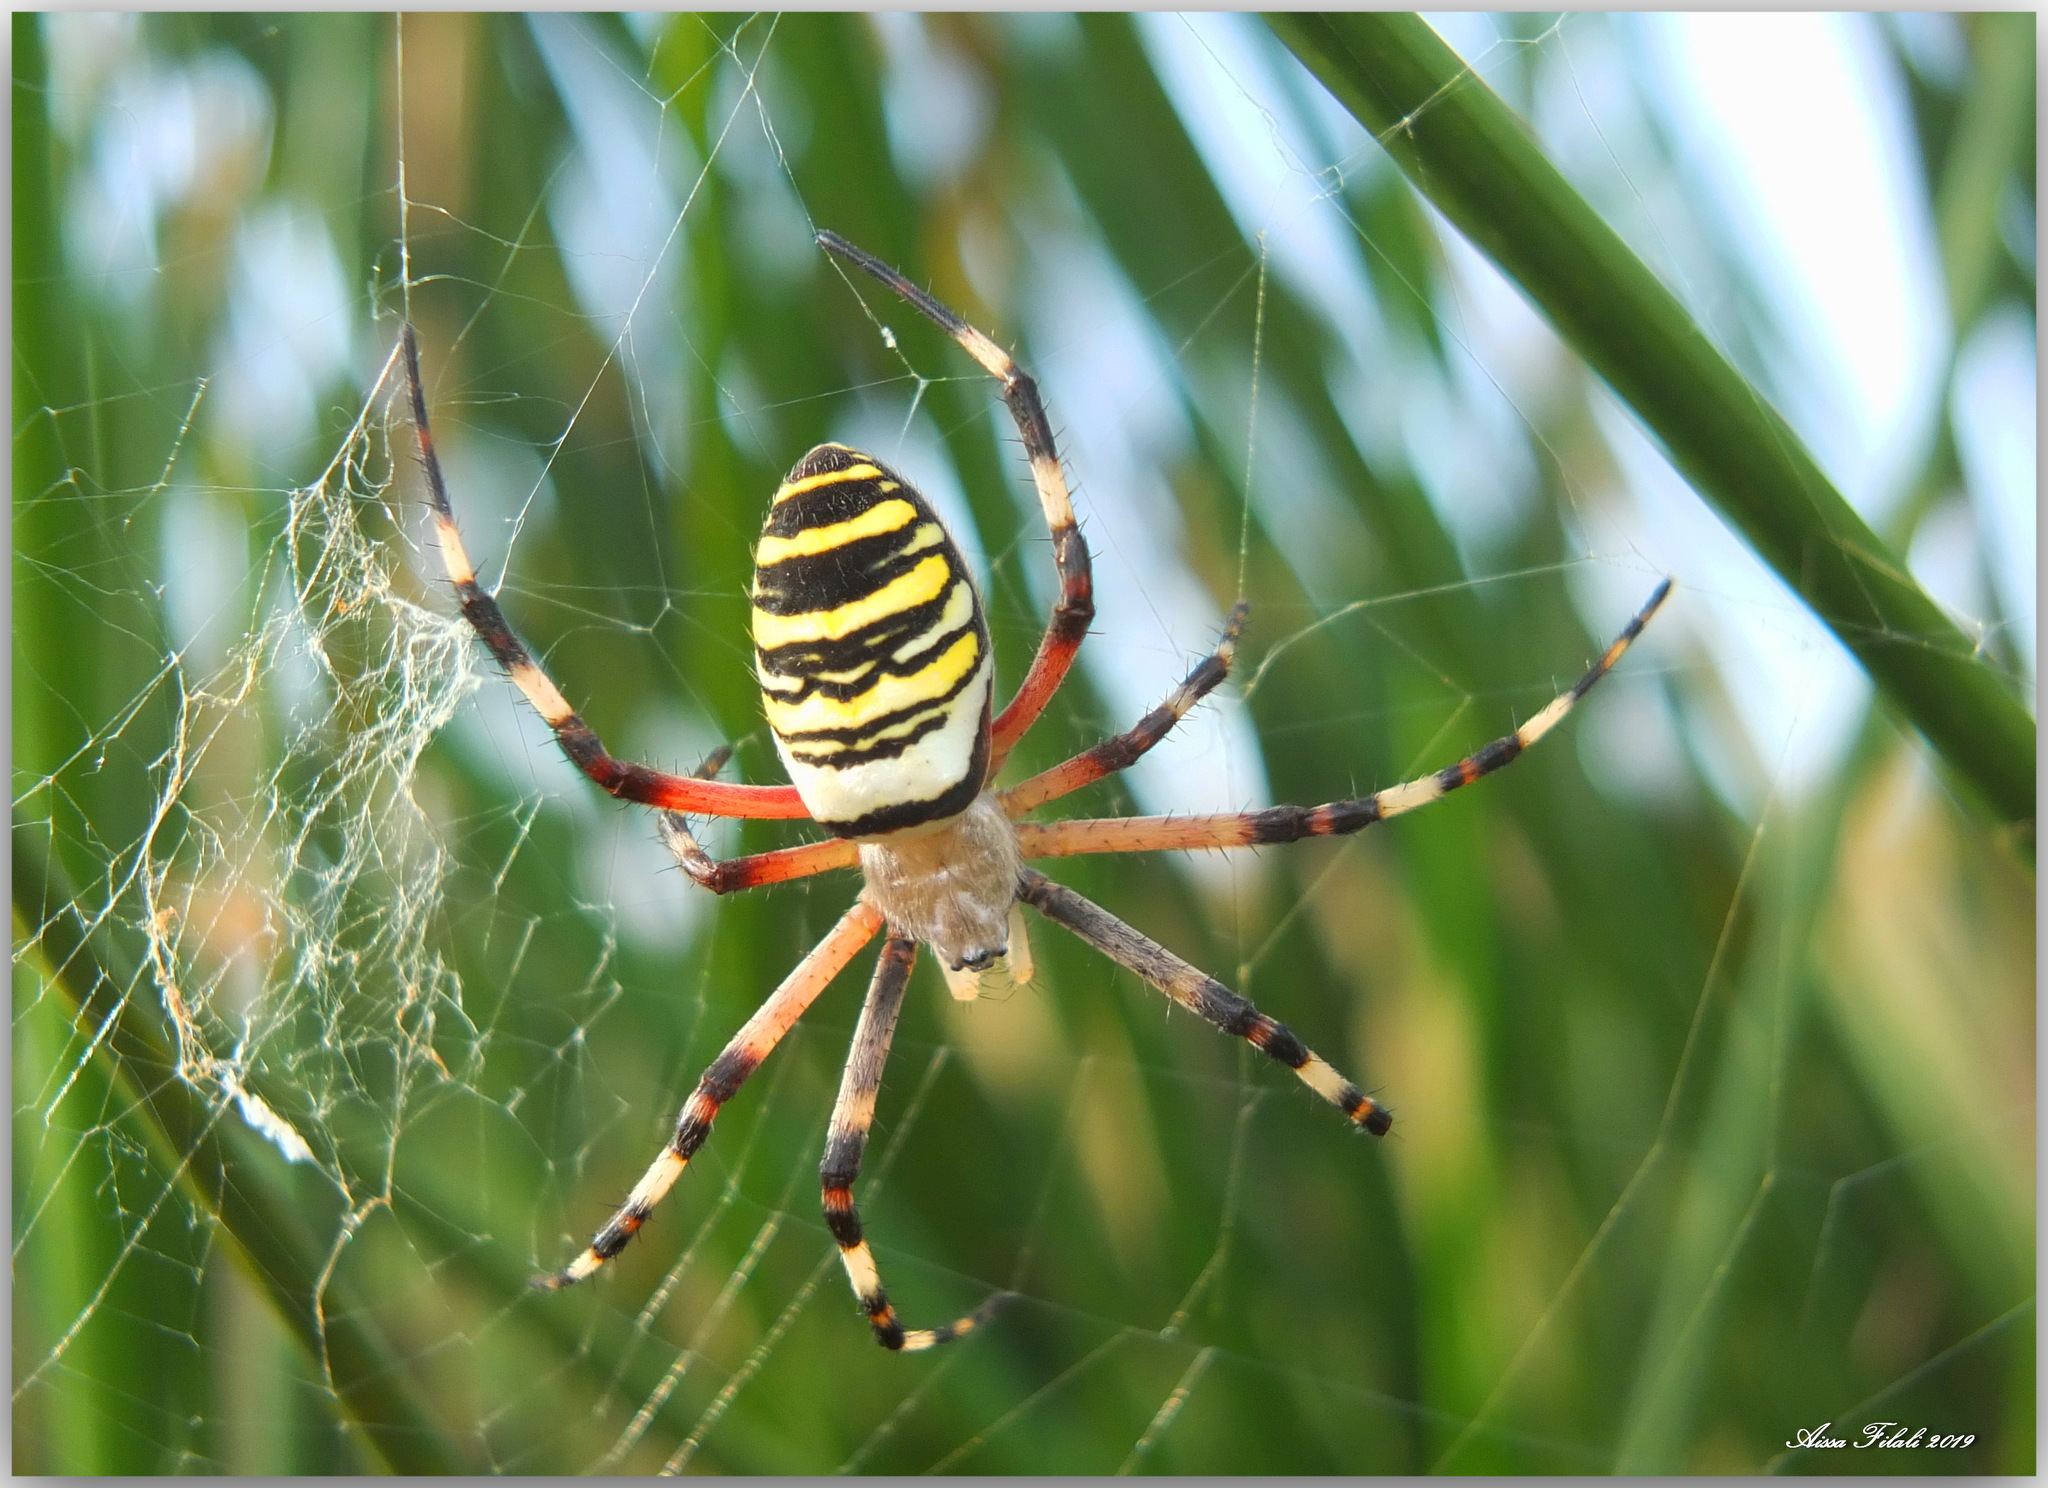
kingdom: Animalia
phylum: Arthropoda
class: Arachnida
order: Araneae
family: Araneidae
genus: Argiope
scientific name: Argiope bruennichi
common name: Wasp spider
